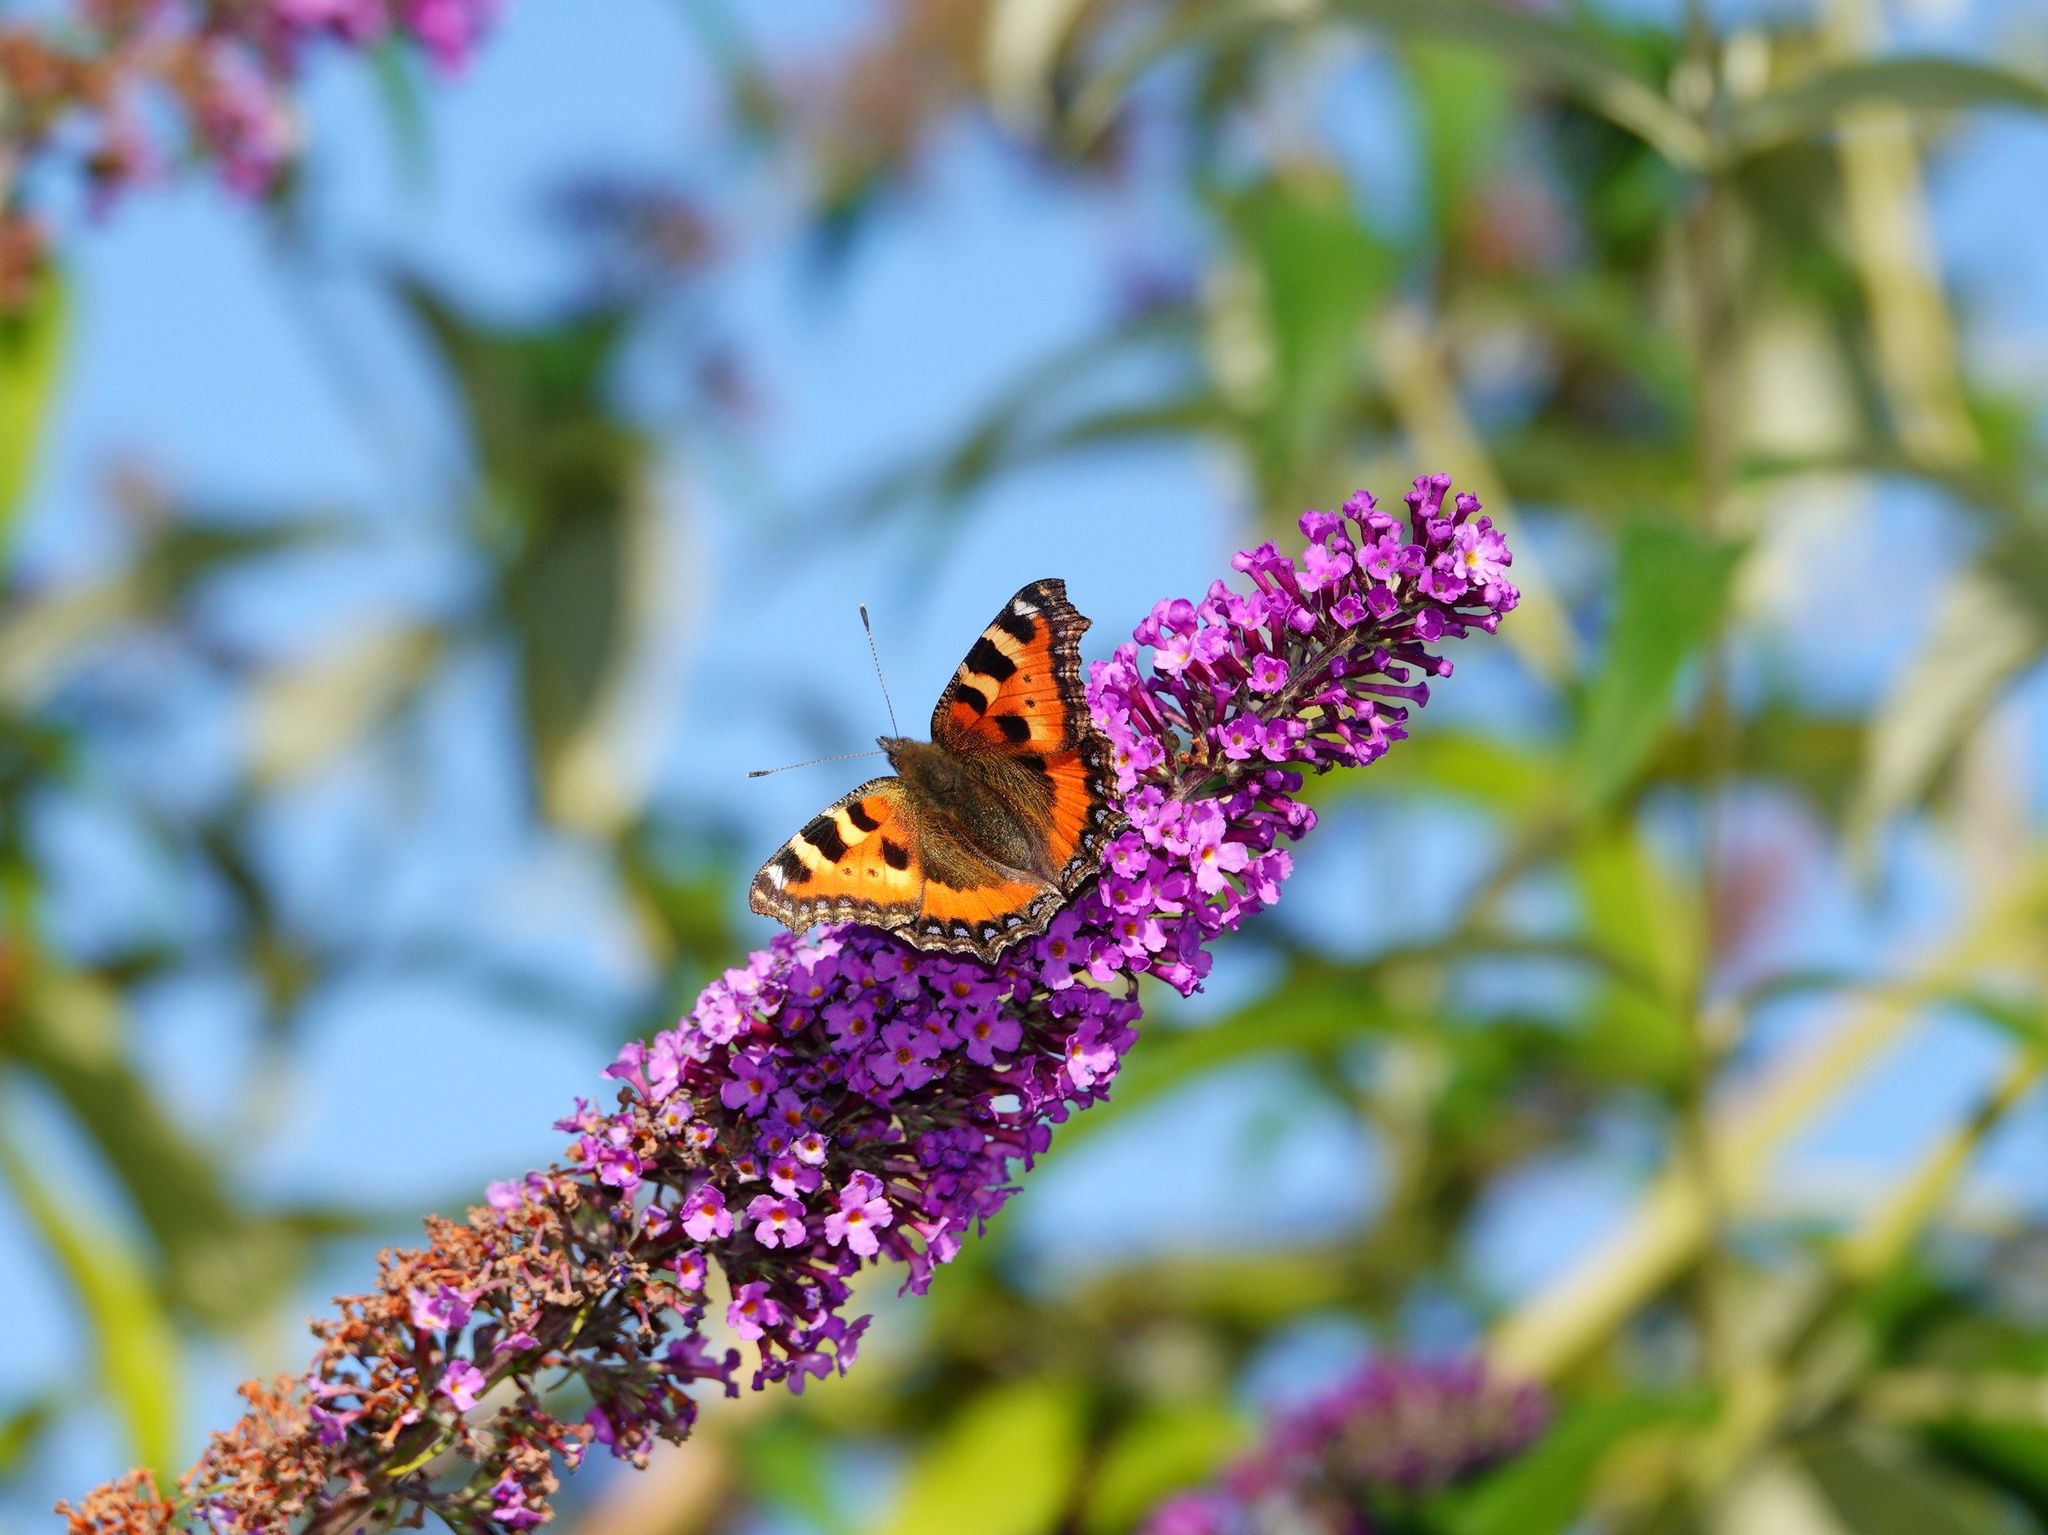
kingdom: Animalia
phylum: Arthropoda
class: Insecta
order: Lepidoptera
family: Nymphalidae
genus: Aglais
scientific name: Aglais urticae
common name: Small tortoiseshell
